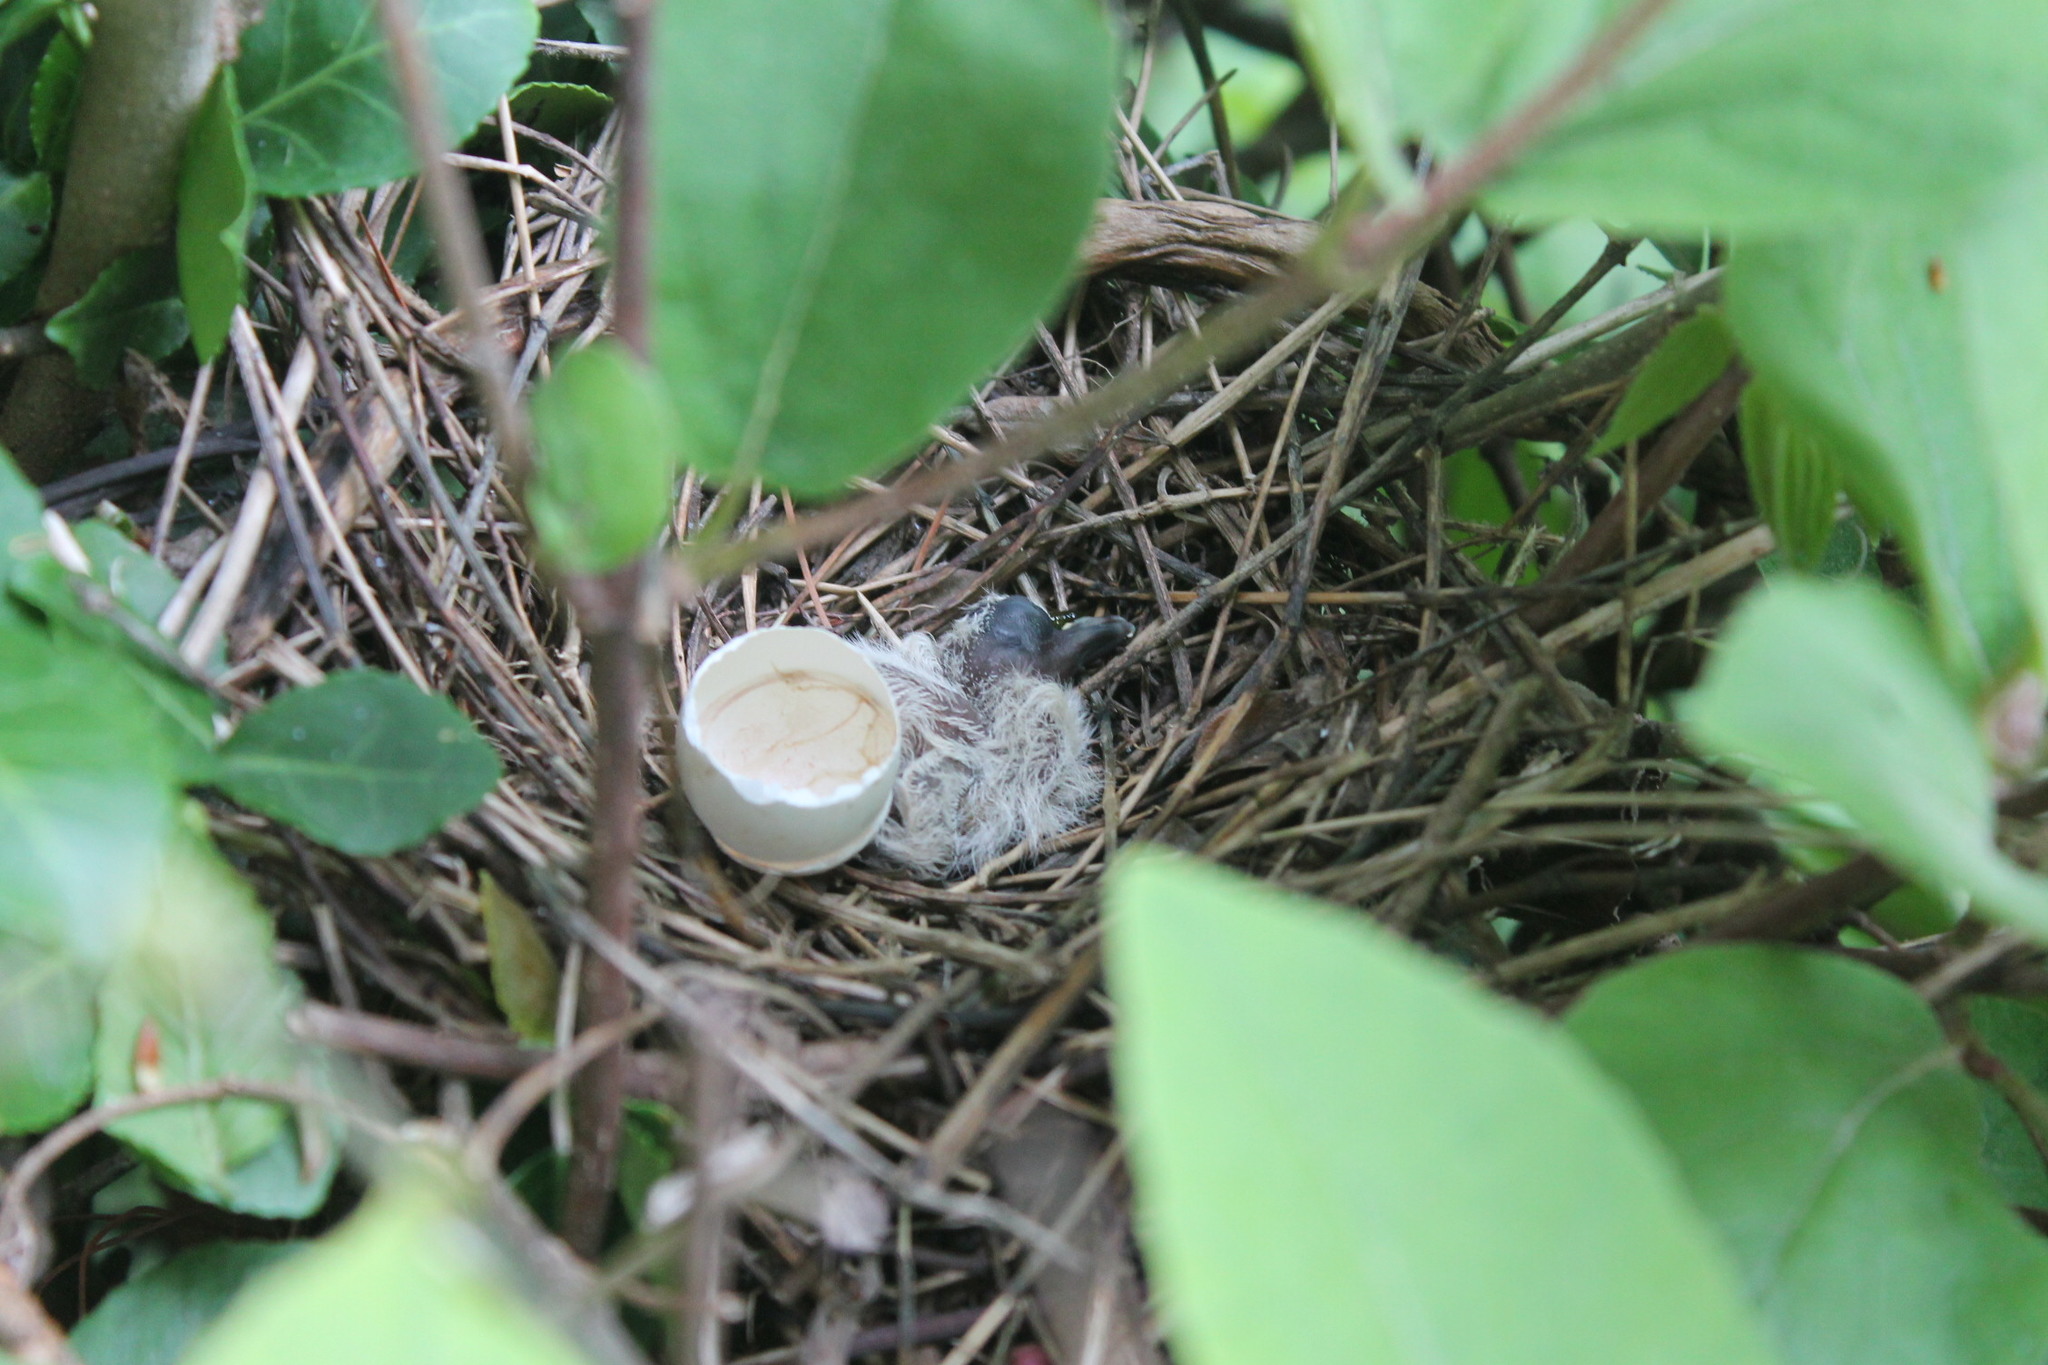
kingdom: Animalia
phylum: Chordata
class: Aves
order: Columbiformes
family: Columbidae
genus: Zenaida
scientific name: Zenaida macroura
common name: Mourning dove
